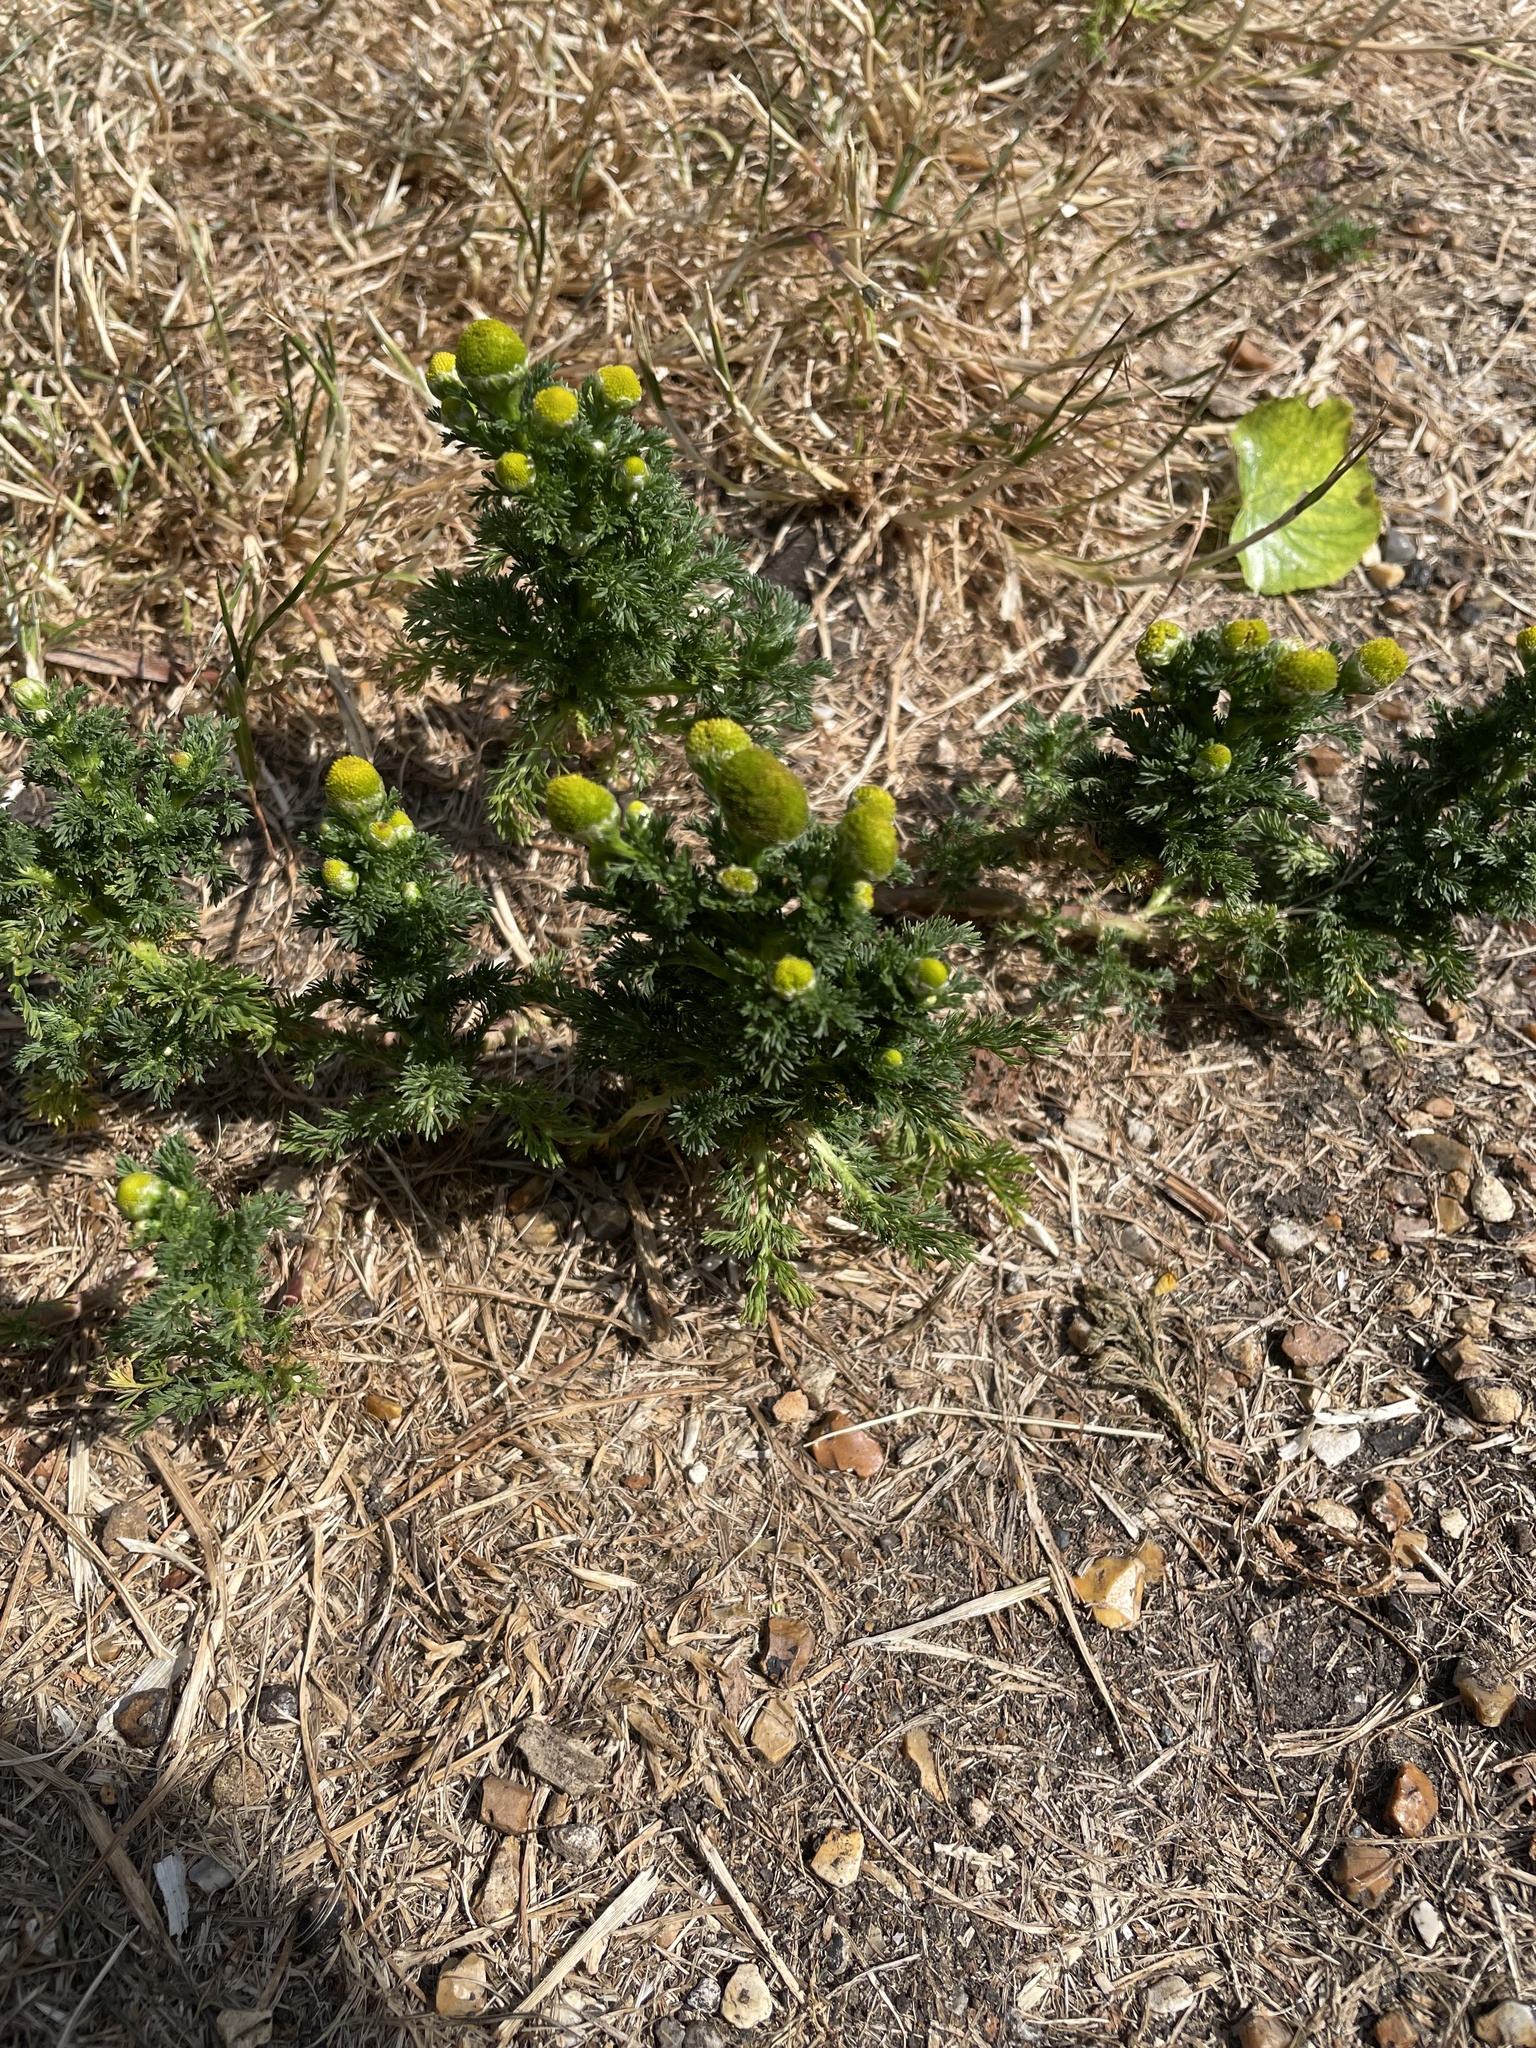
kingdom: Plantae
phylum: Tracheophyta
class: Magnoliopsida
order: Asterales
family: Asteraceae
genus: Matricaria
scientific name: Matricaria discoidea
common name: Disc mayweed
